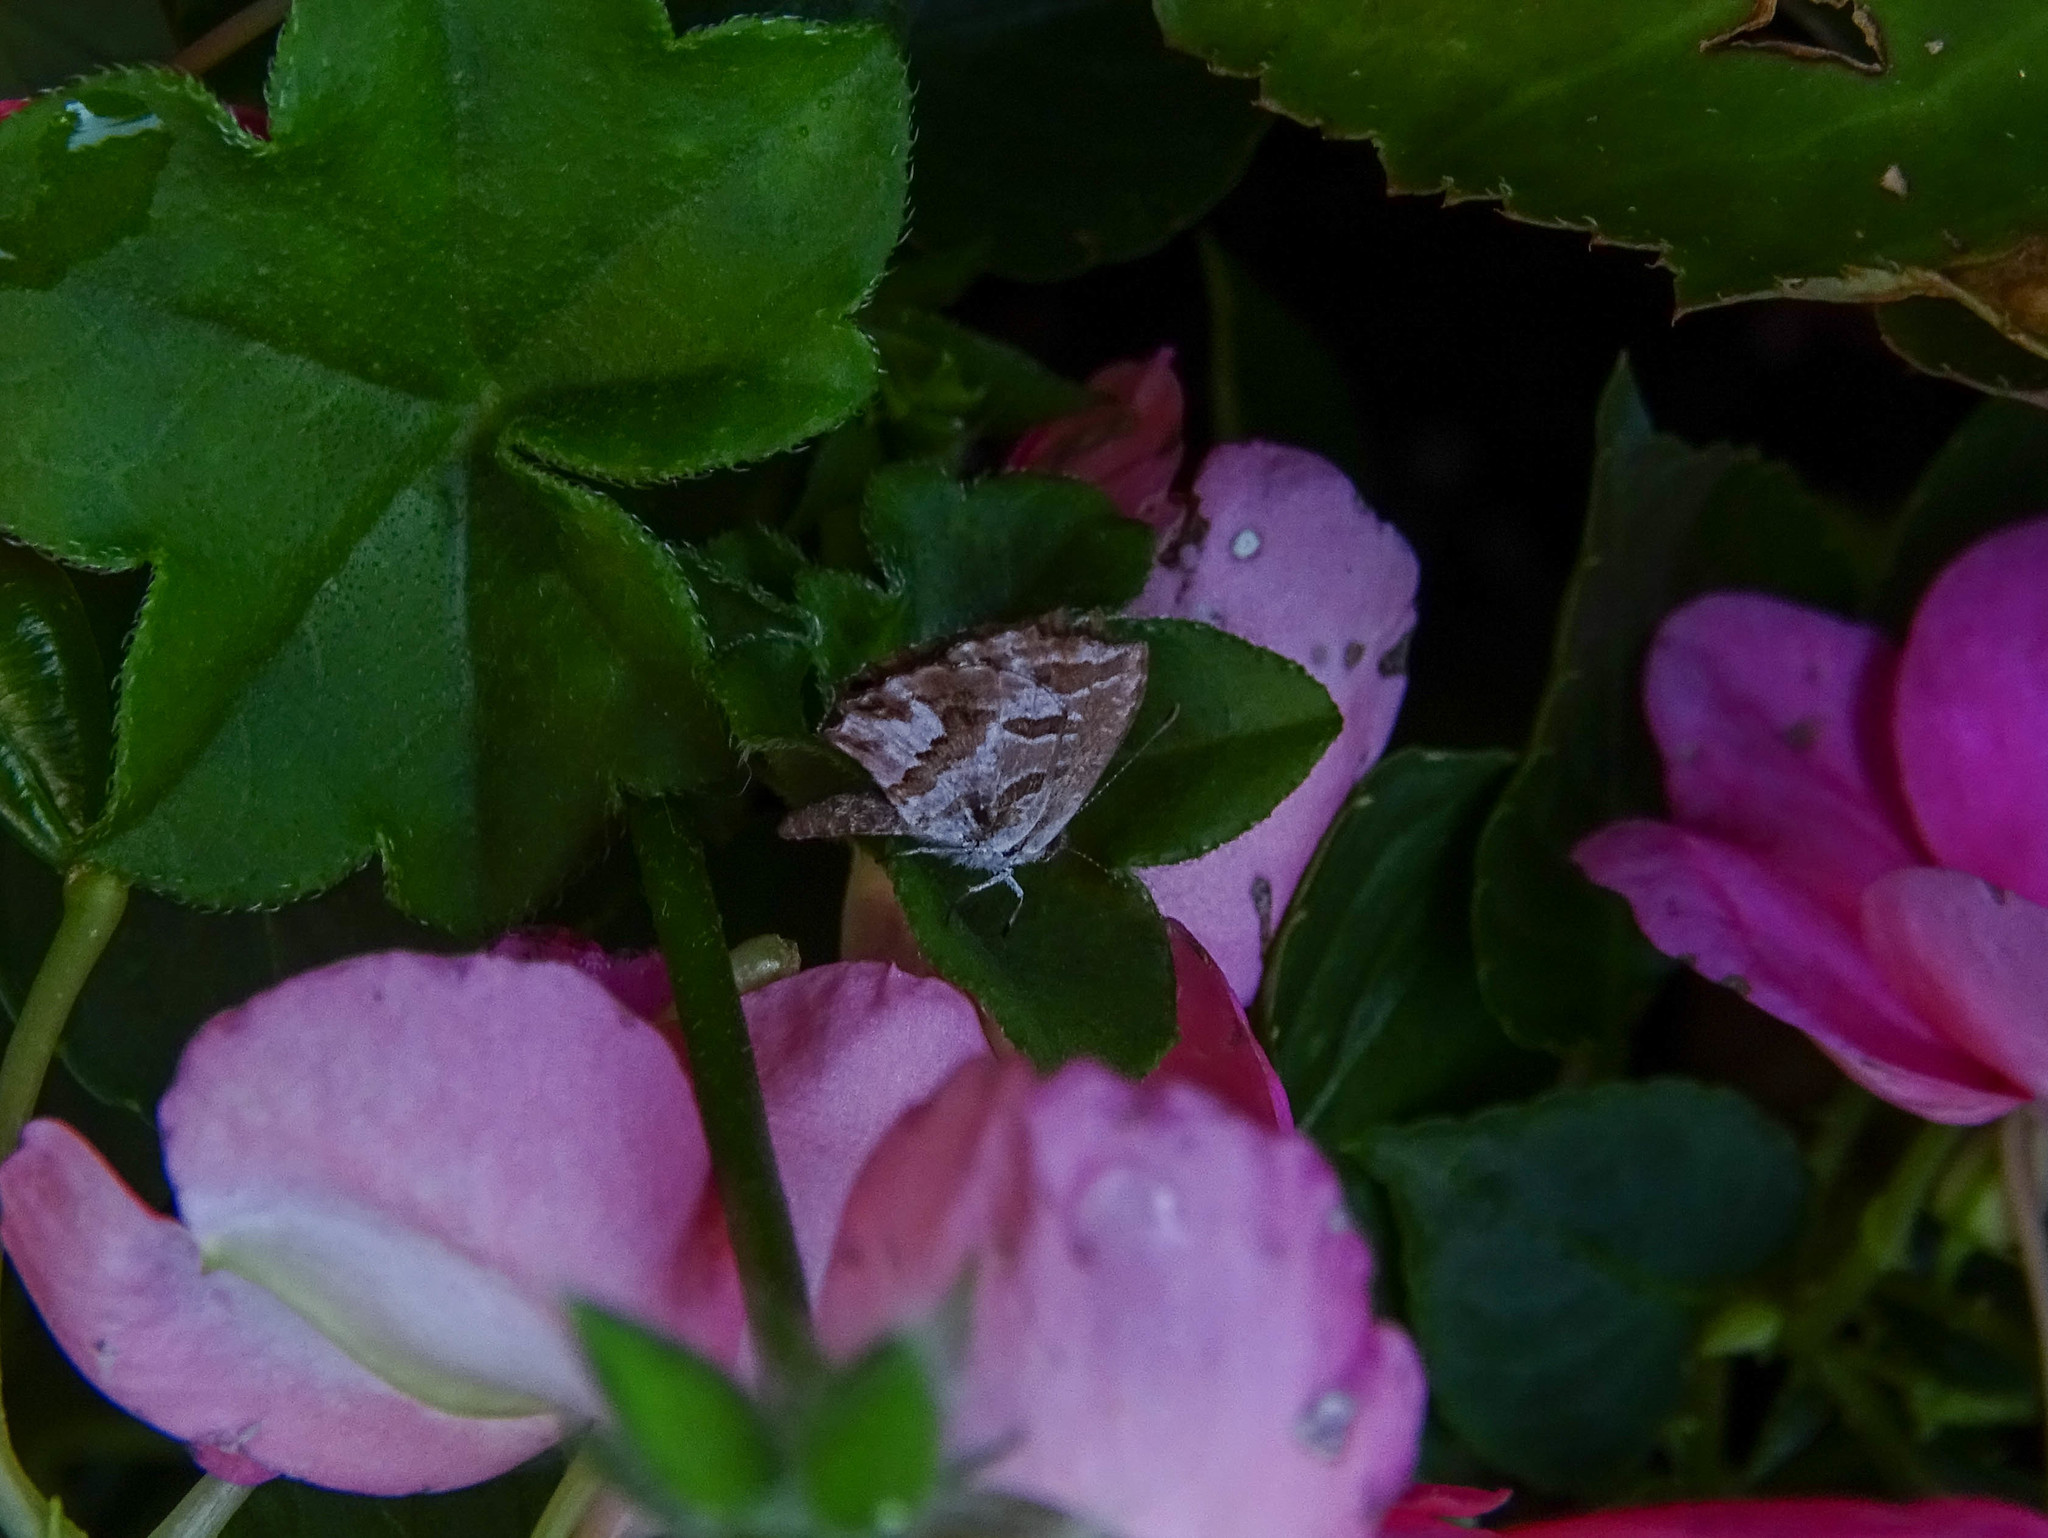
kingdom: Animalia
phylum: Arthropoda
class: Insecta
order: Lepidoptera
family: Lycaenidae
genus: Cacyreus
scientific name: Cacyreus marshalli
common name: Geranium bronze
